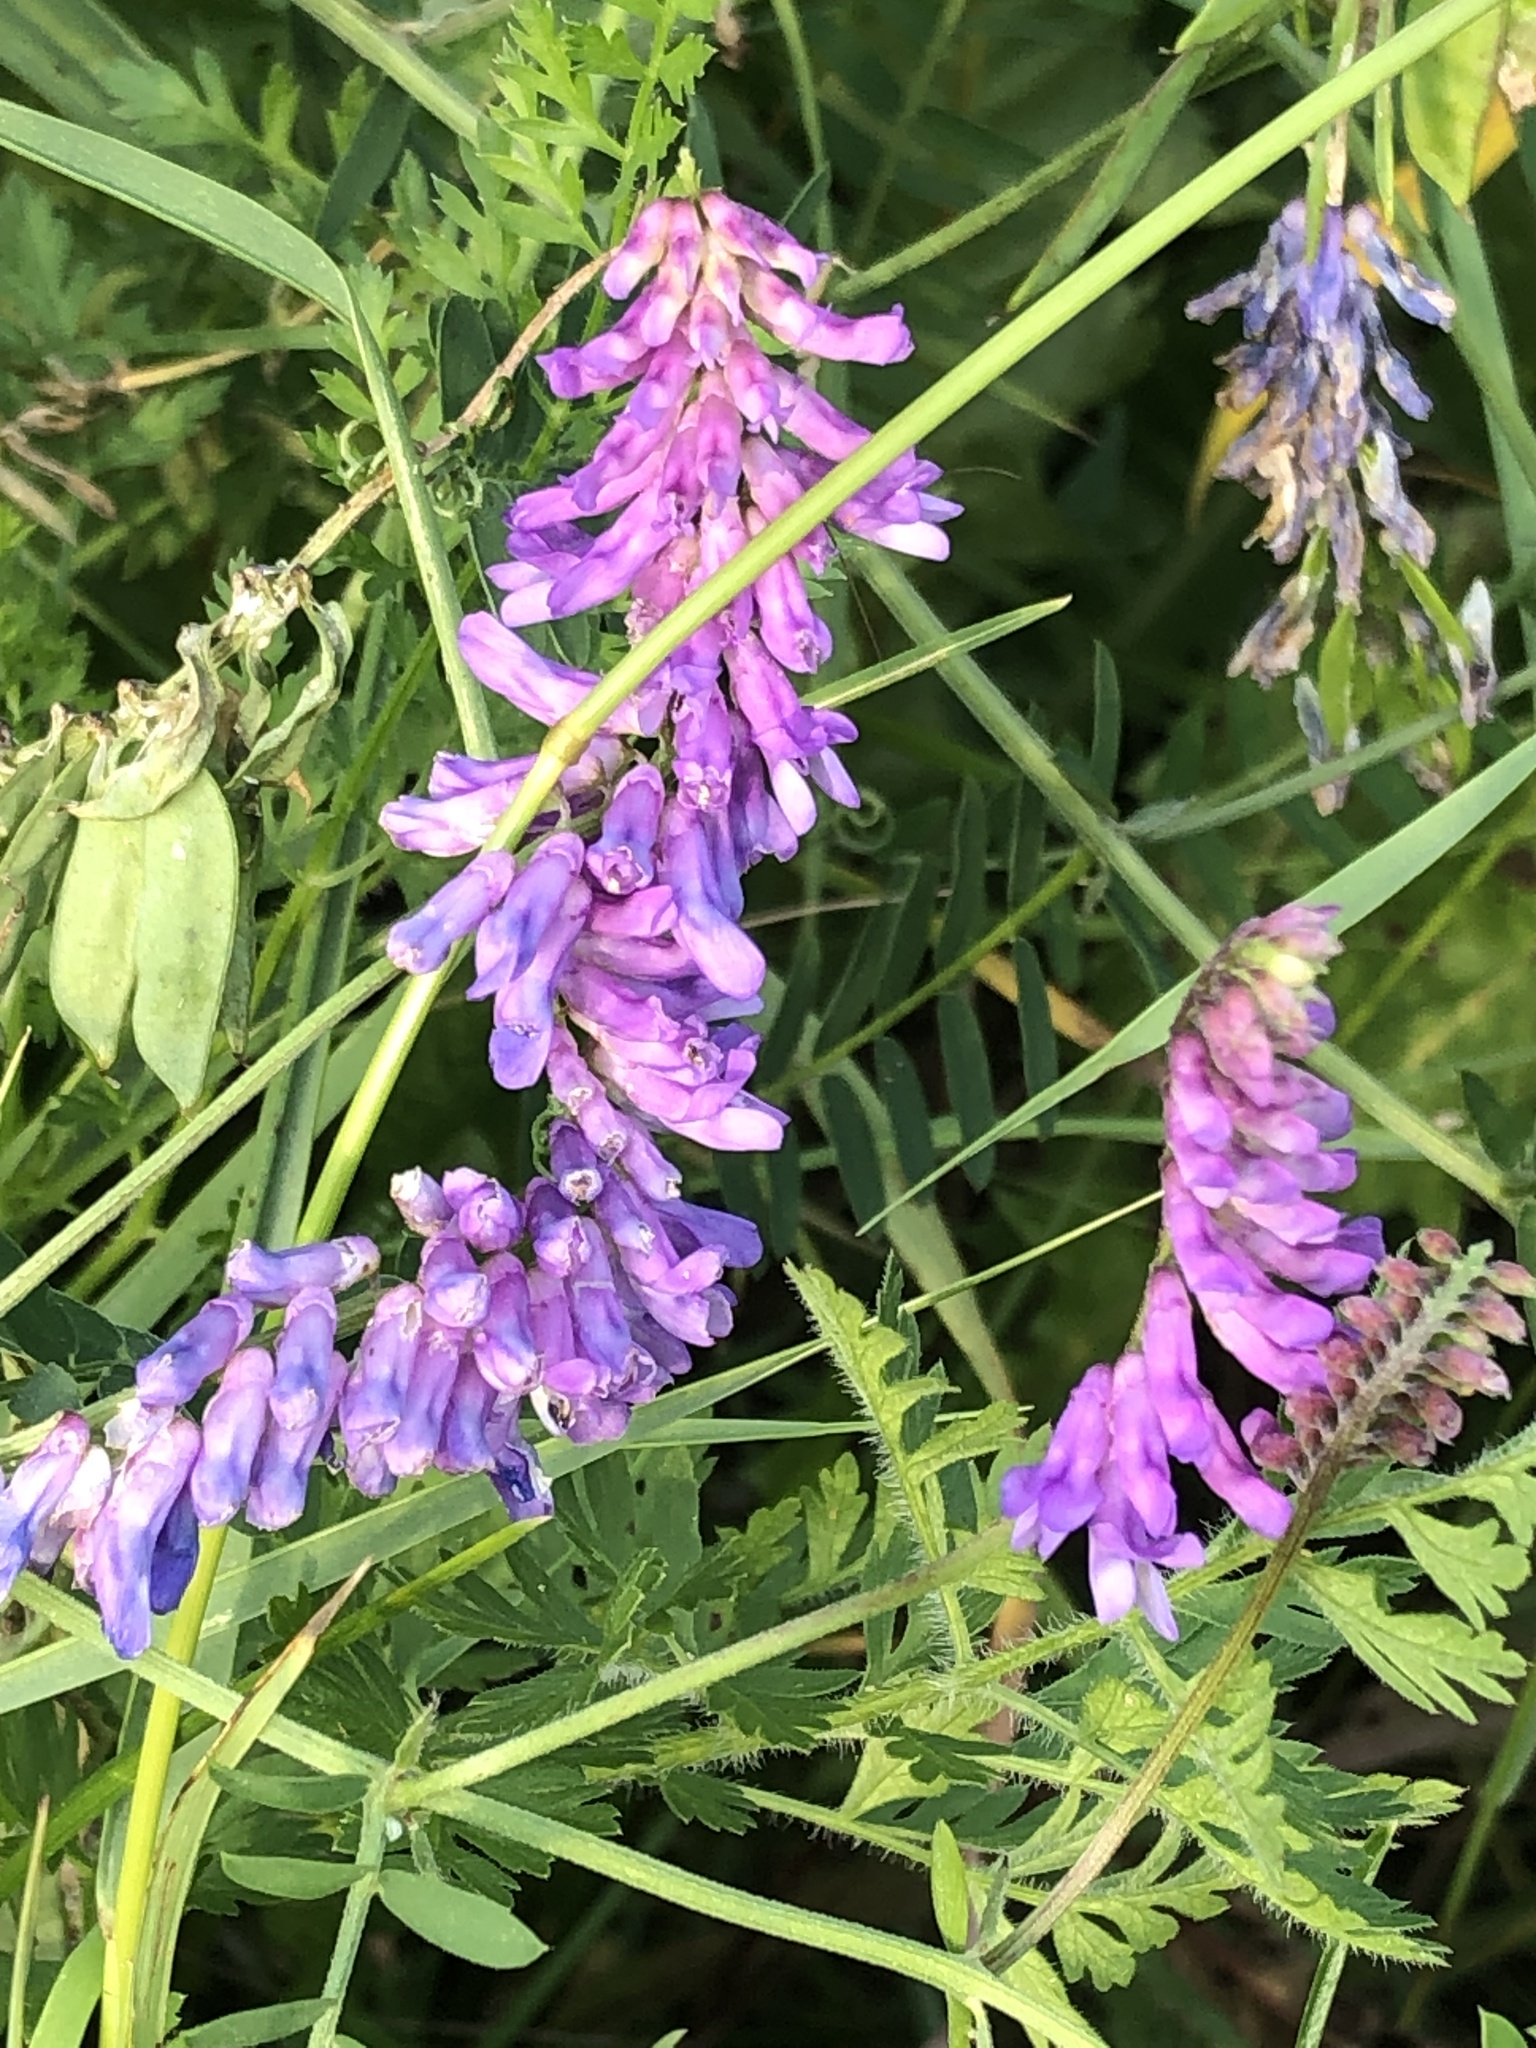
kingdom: Plantae
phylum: Tracheophyta
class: Magnoliopsida
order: Fabales
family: Fabaceae
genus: Vicia
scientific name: Vicia cracca
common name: Bird vetch
